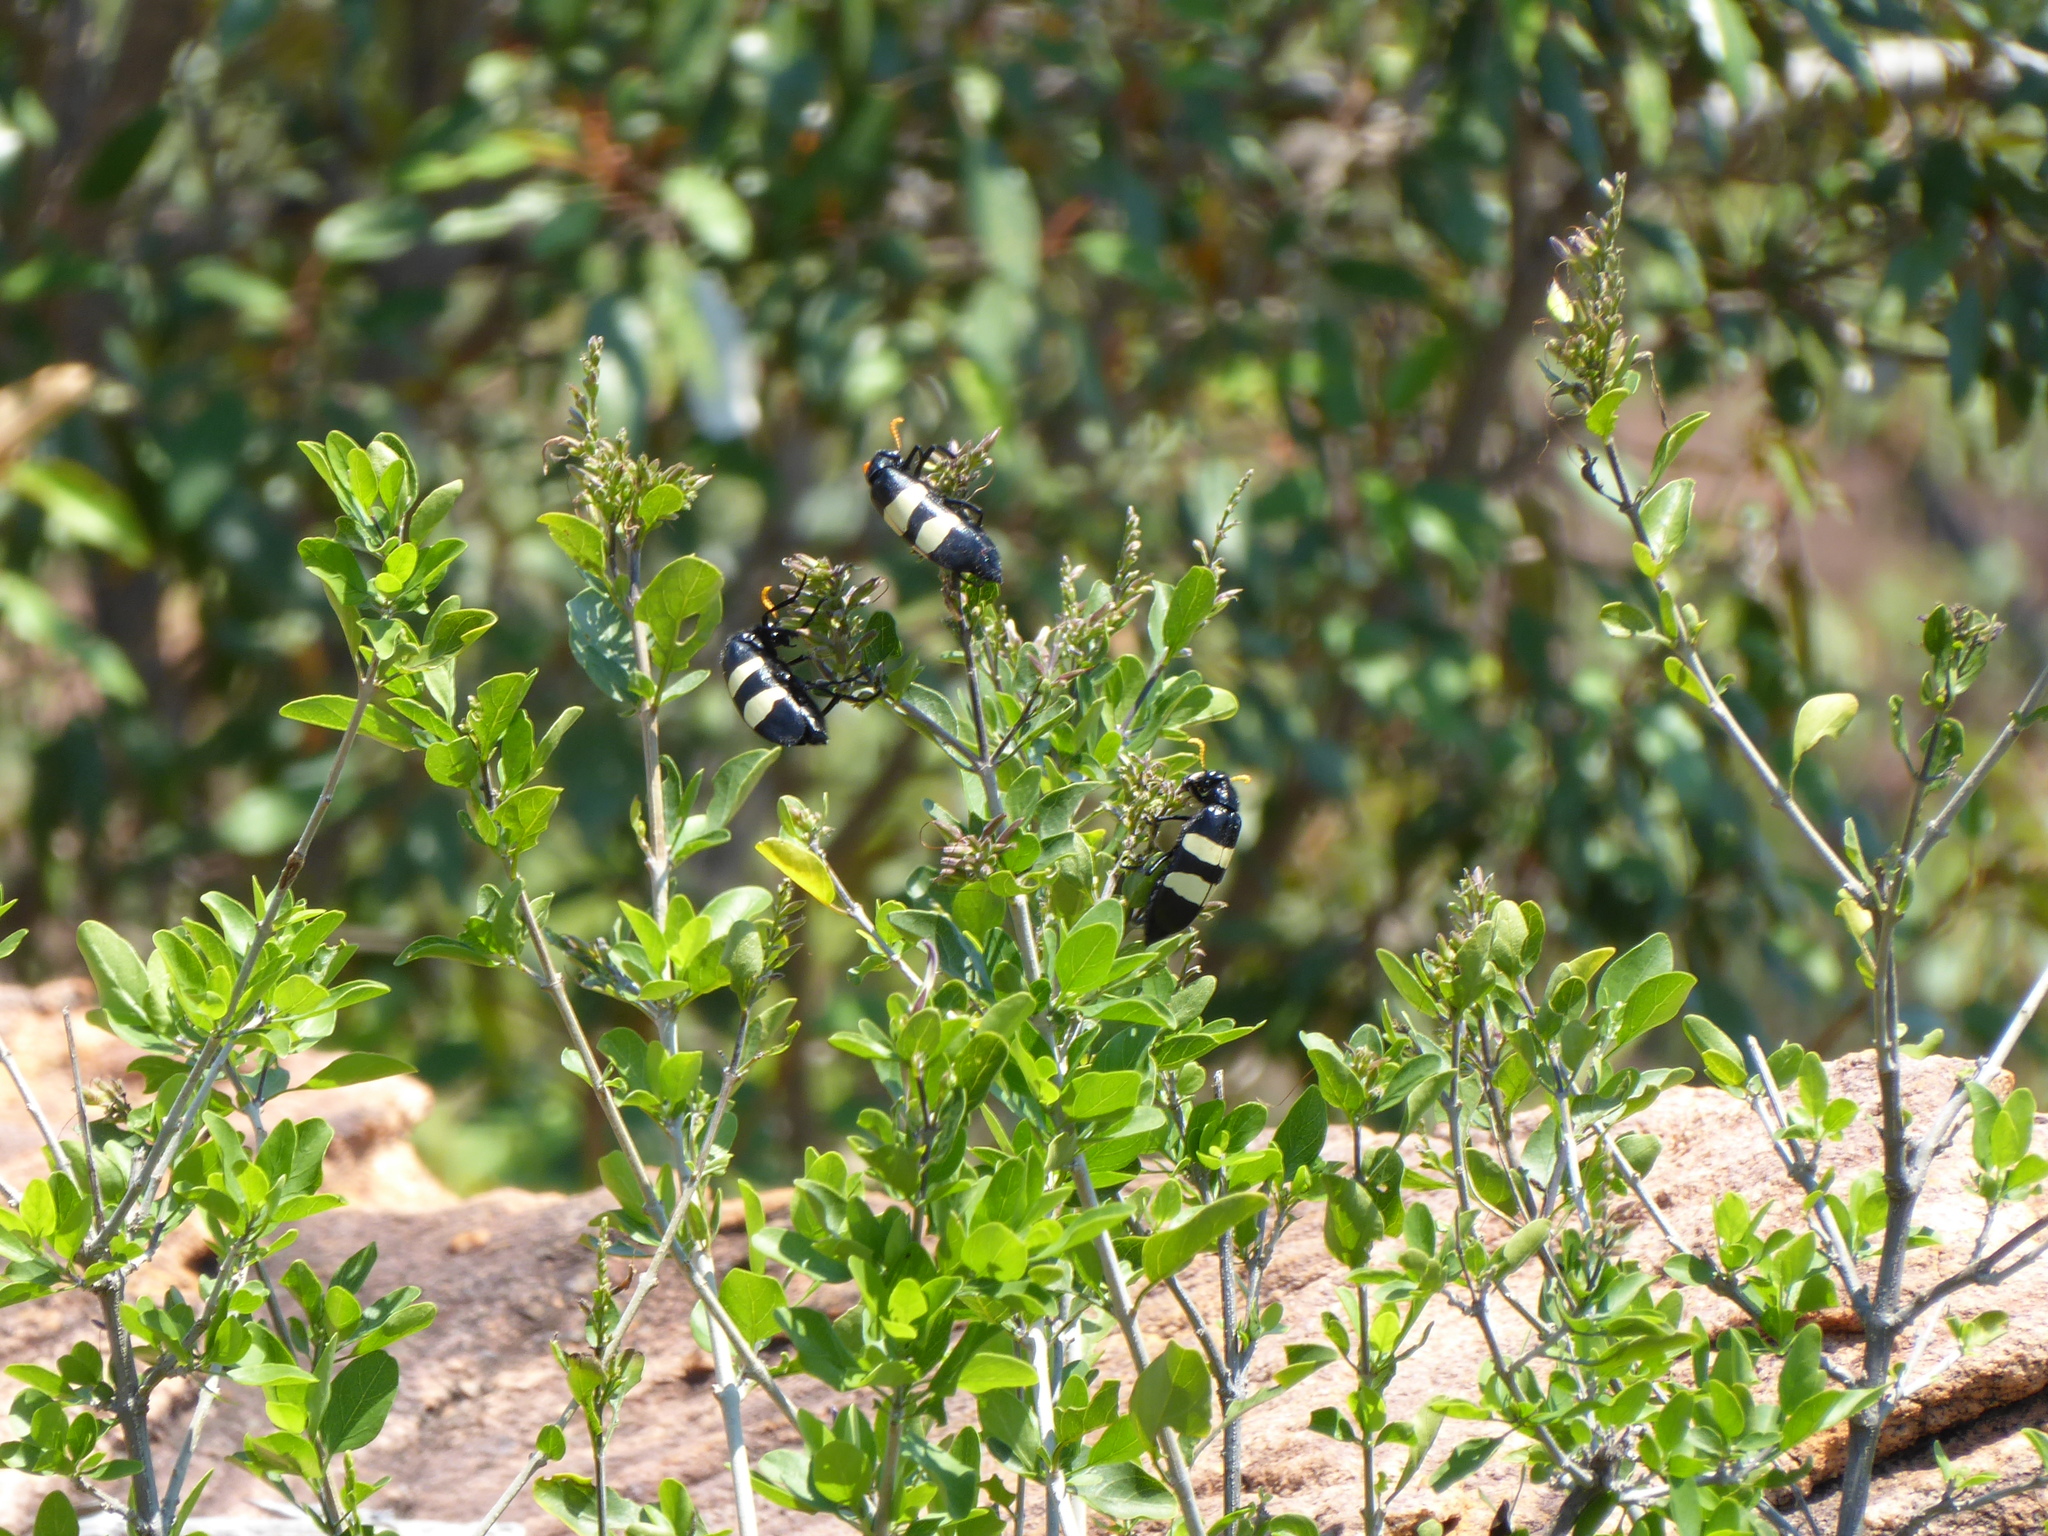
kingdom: Animalia
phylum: Arthropoda
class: Insecta
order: Coleoptera
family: Meloidae
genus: Hycleus
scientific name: Hycleus
